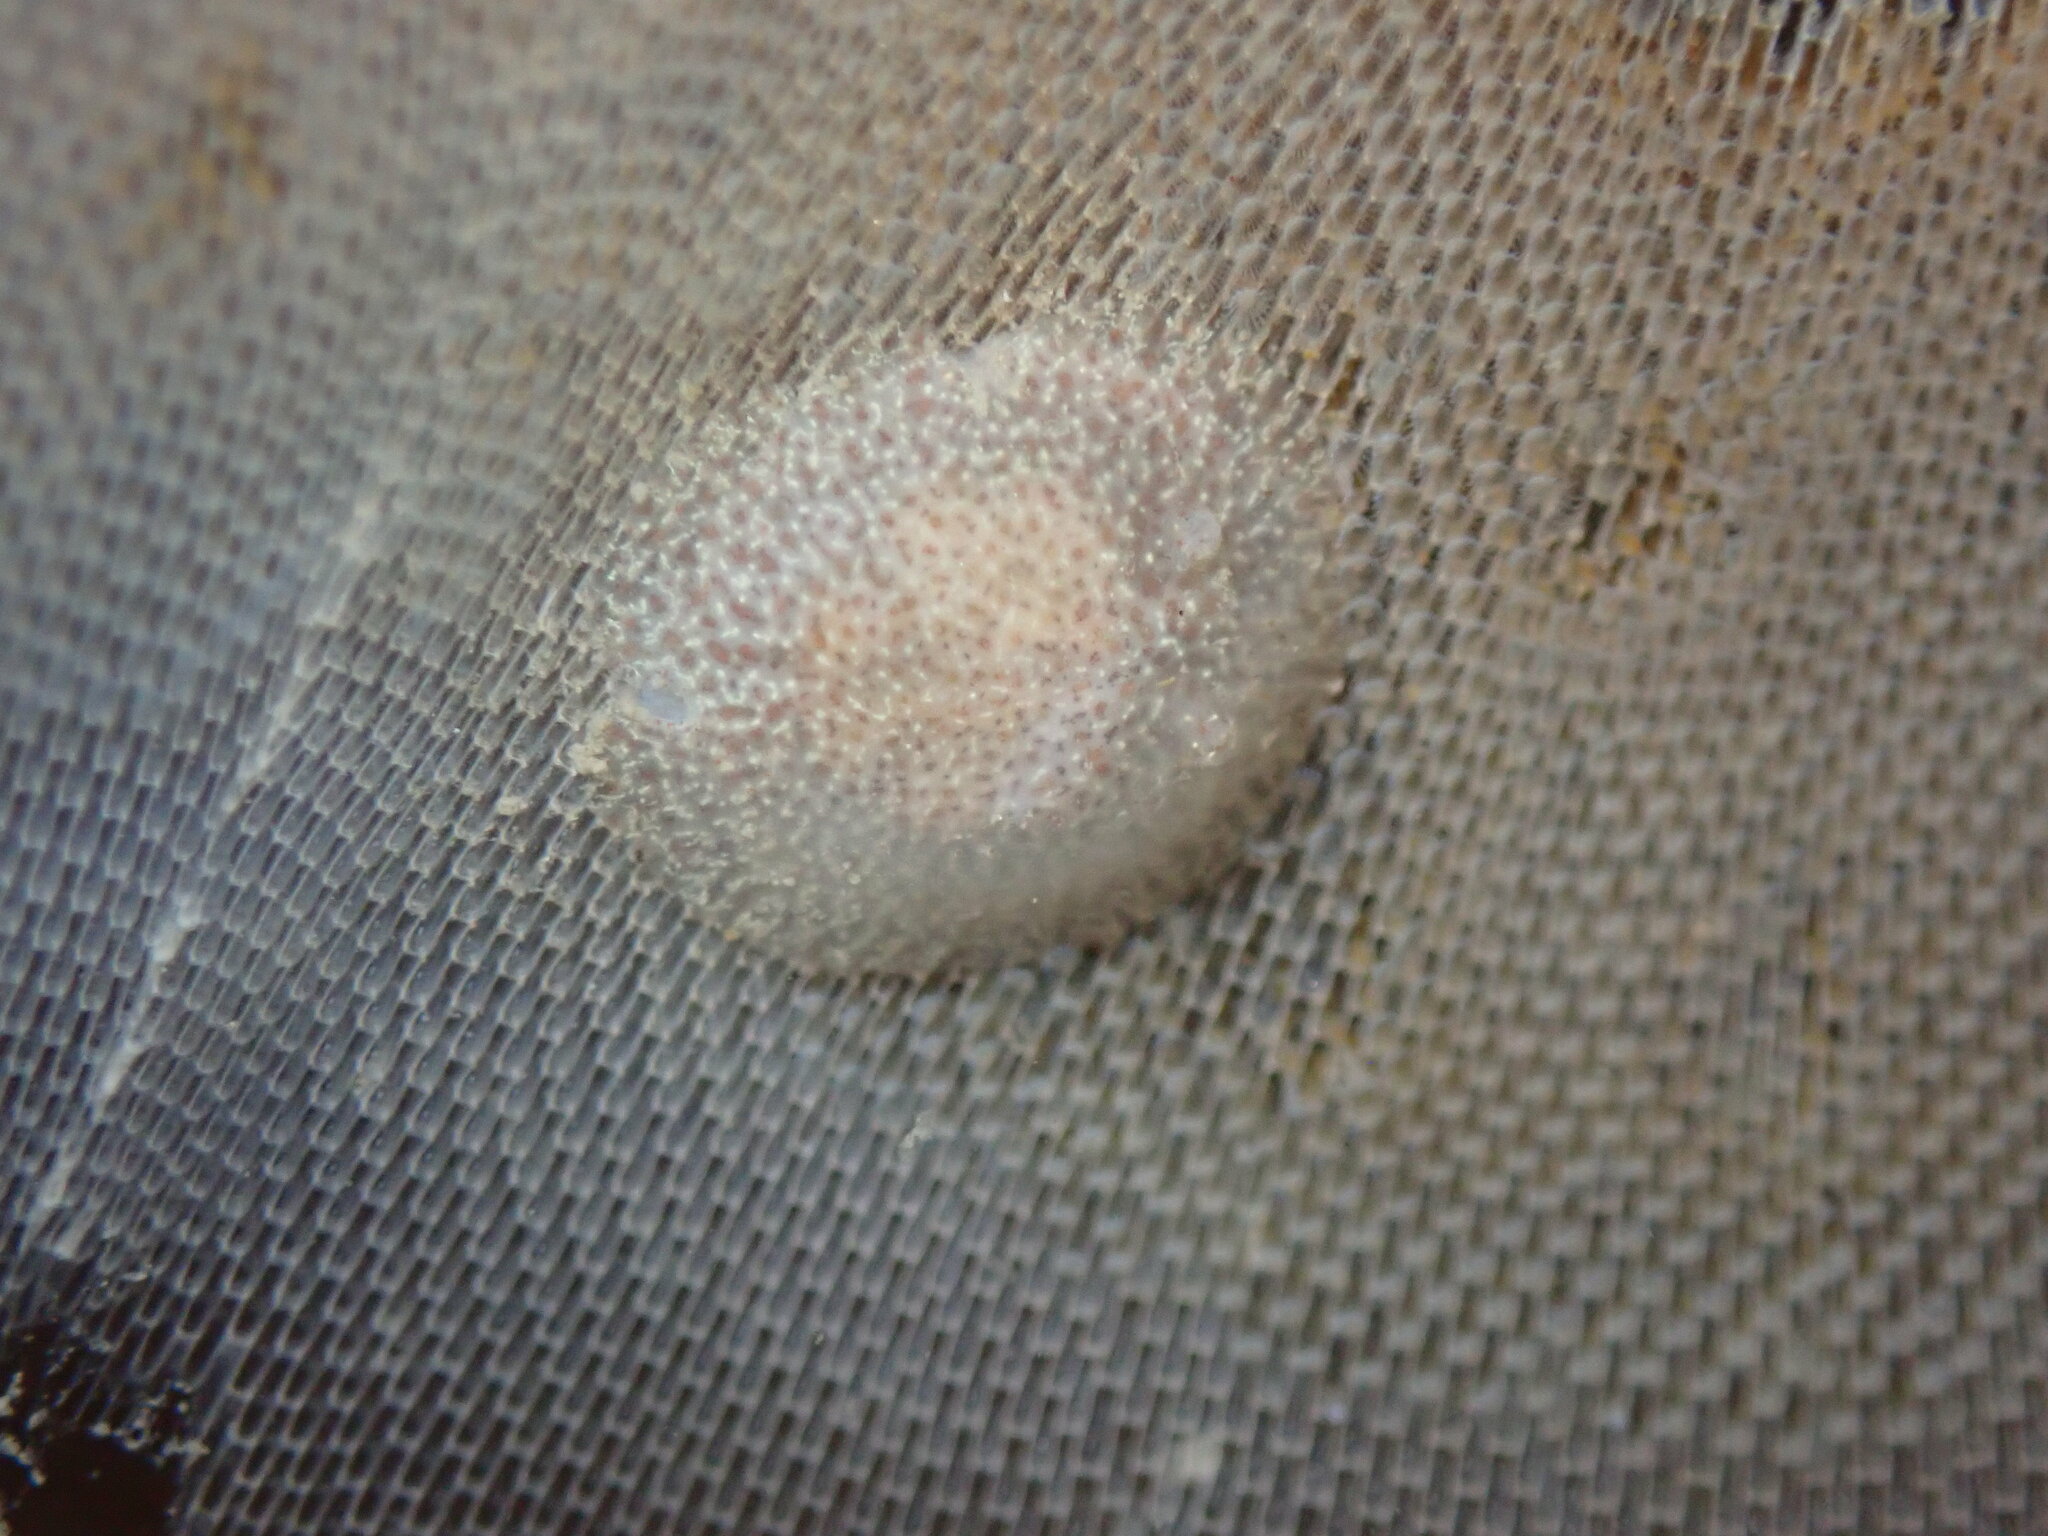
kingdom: Animalia
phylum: Mollusca
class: Gastropoda
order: Nudibranchia
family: Corambidae
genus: Corambe
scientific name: Corambe pacifica
